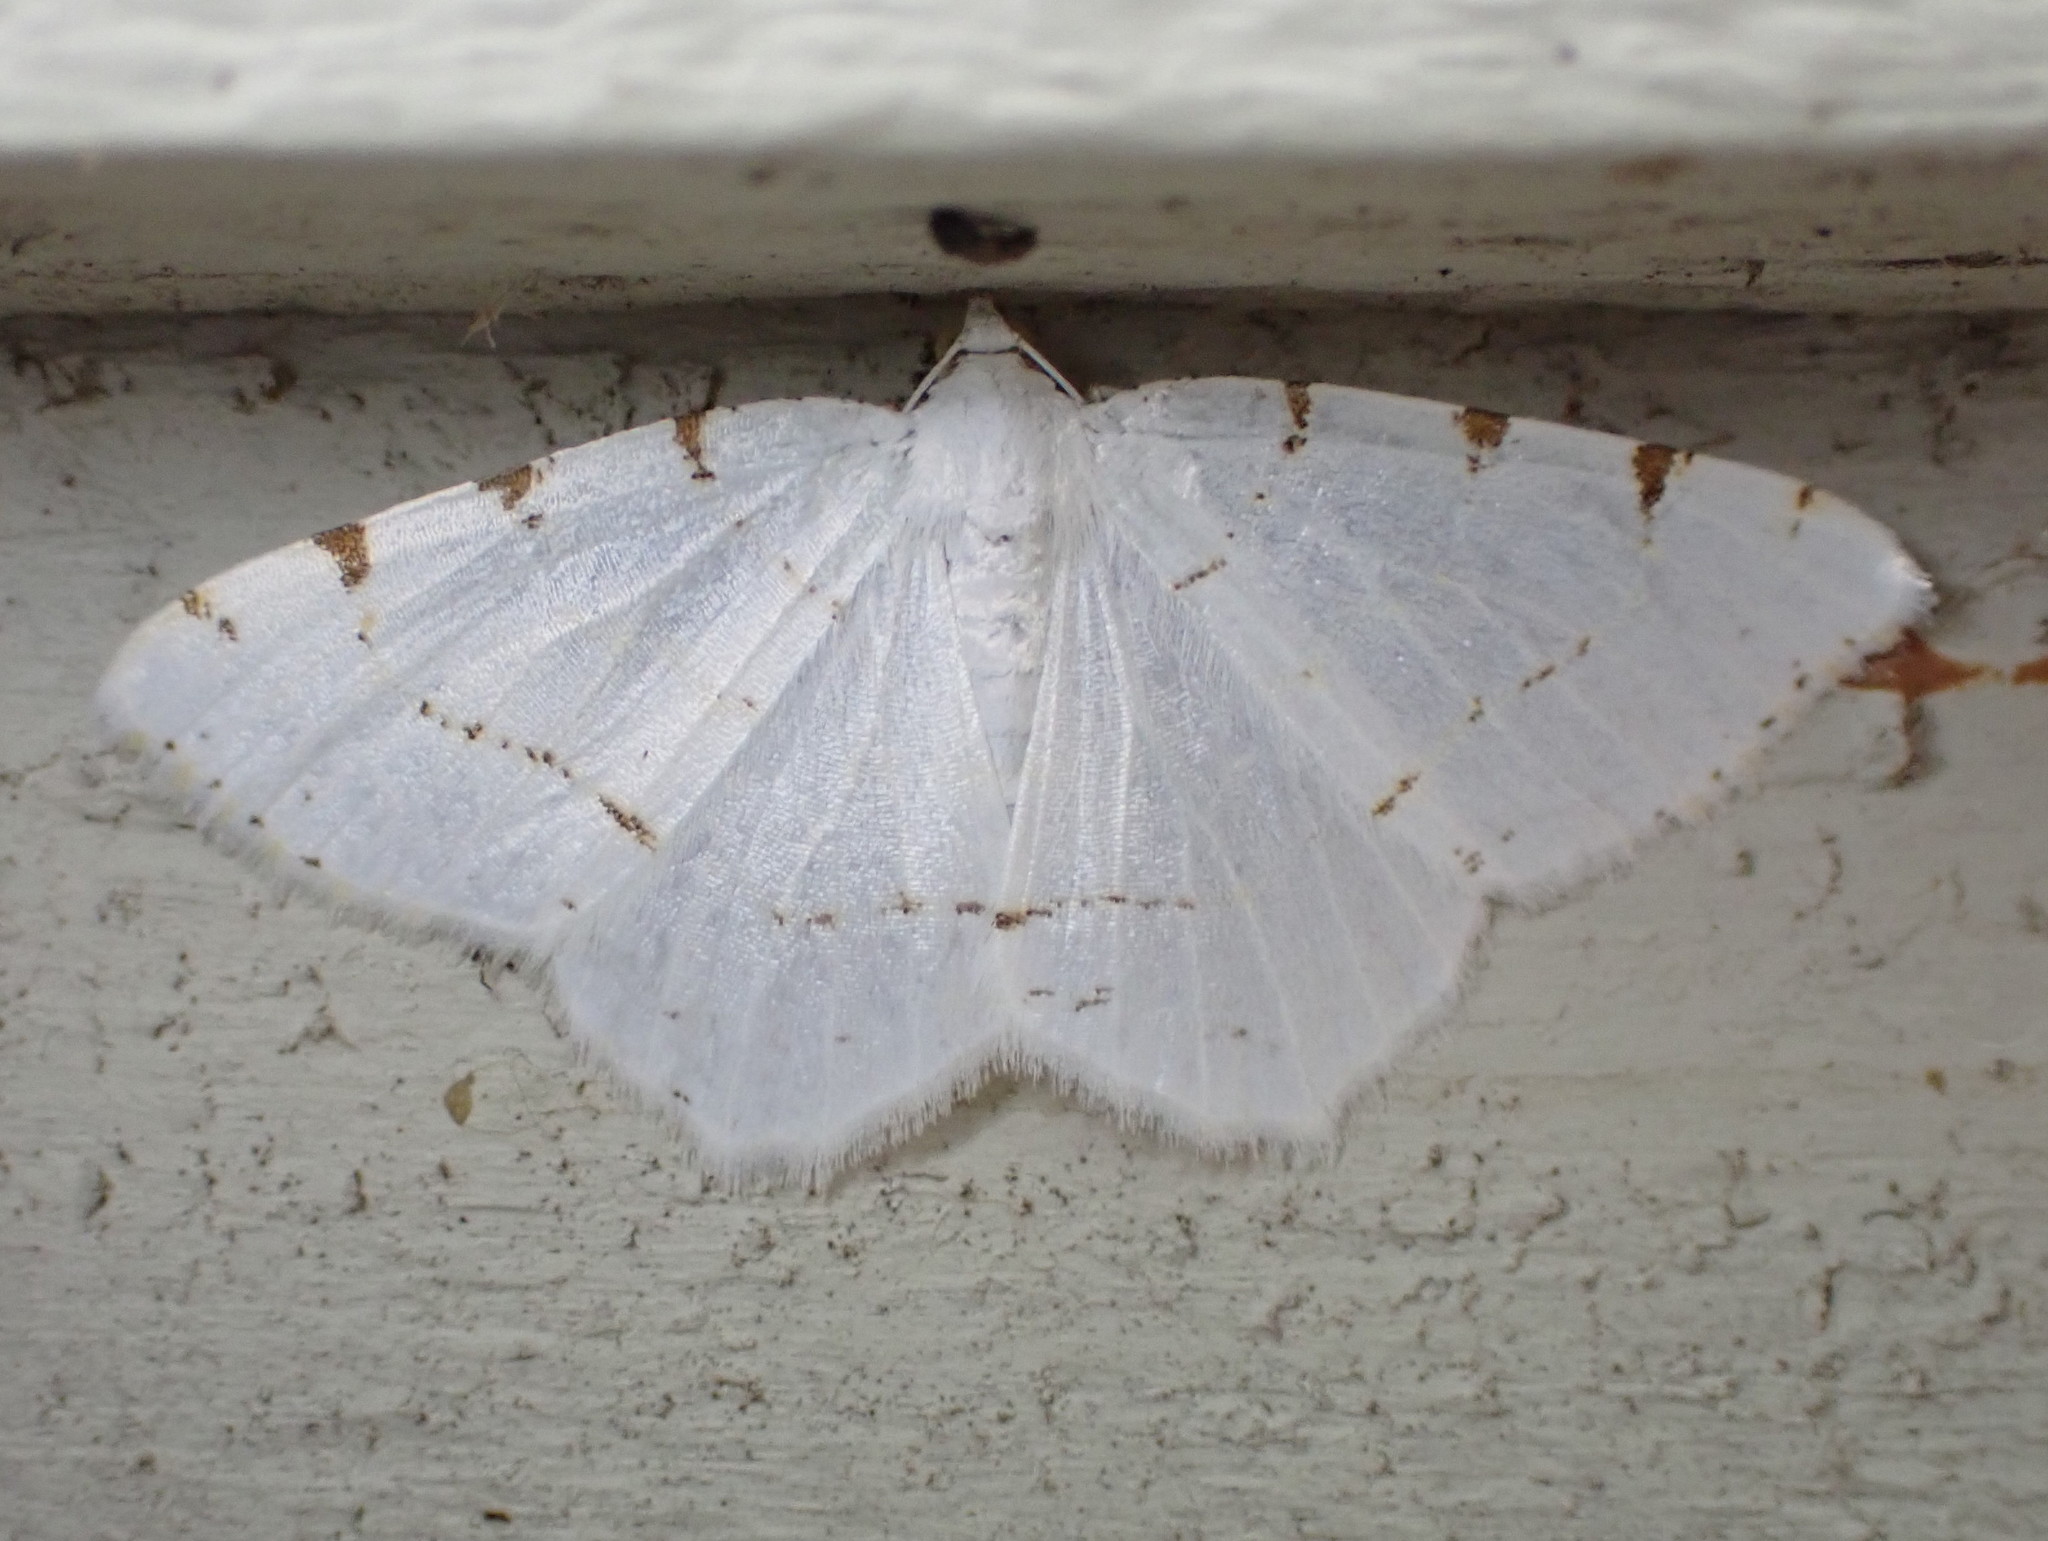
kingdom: Animalia
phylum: Arthropoda
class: Insecta
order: Lepidoptera
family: Geometridae
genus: Macaria
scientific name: Macaria pustularia
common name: Lesser maple spanworm moth
